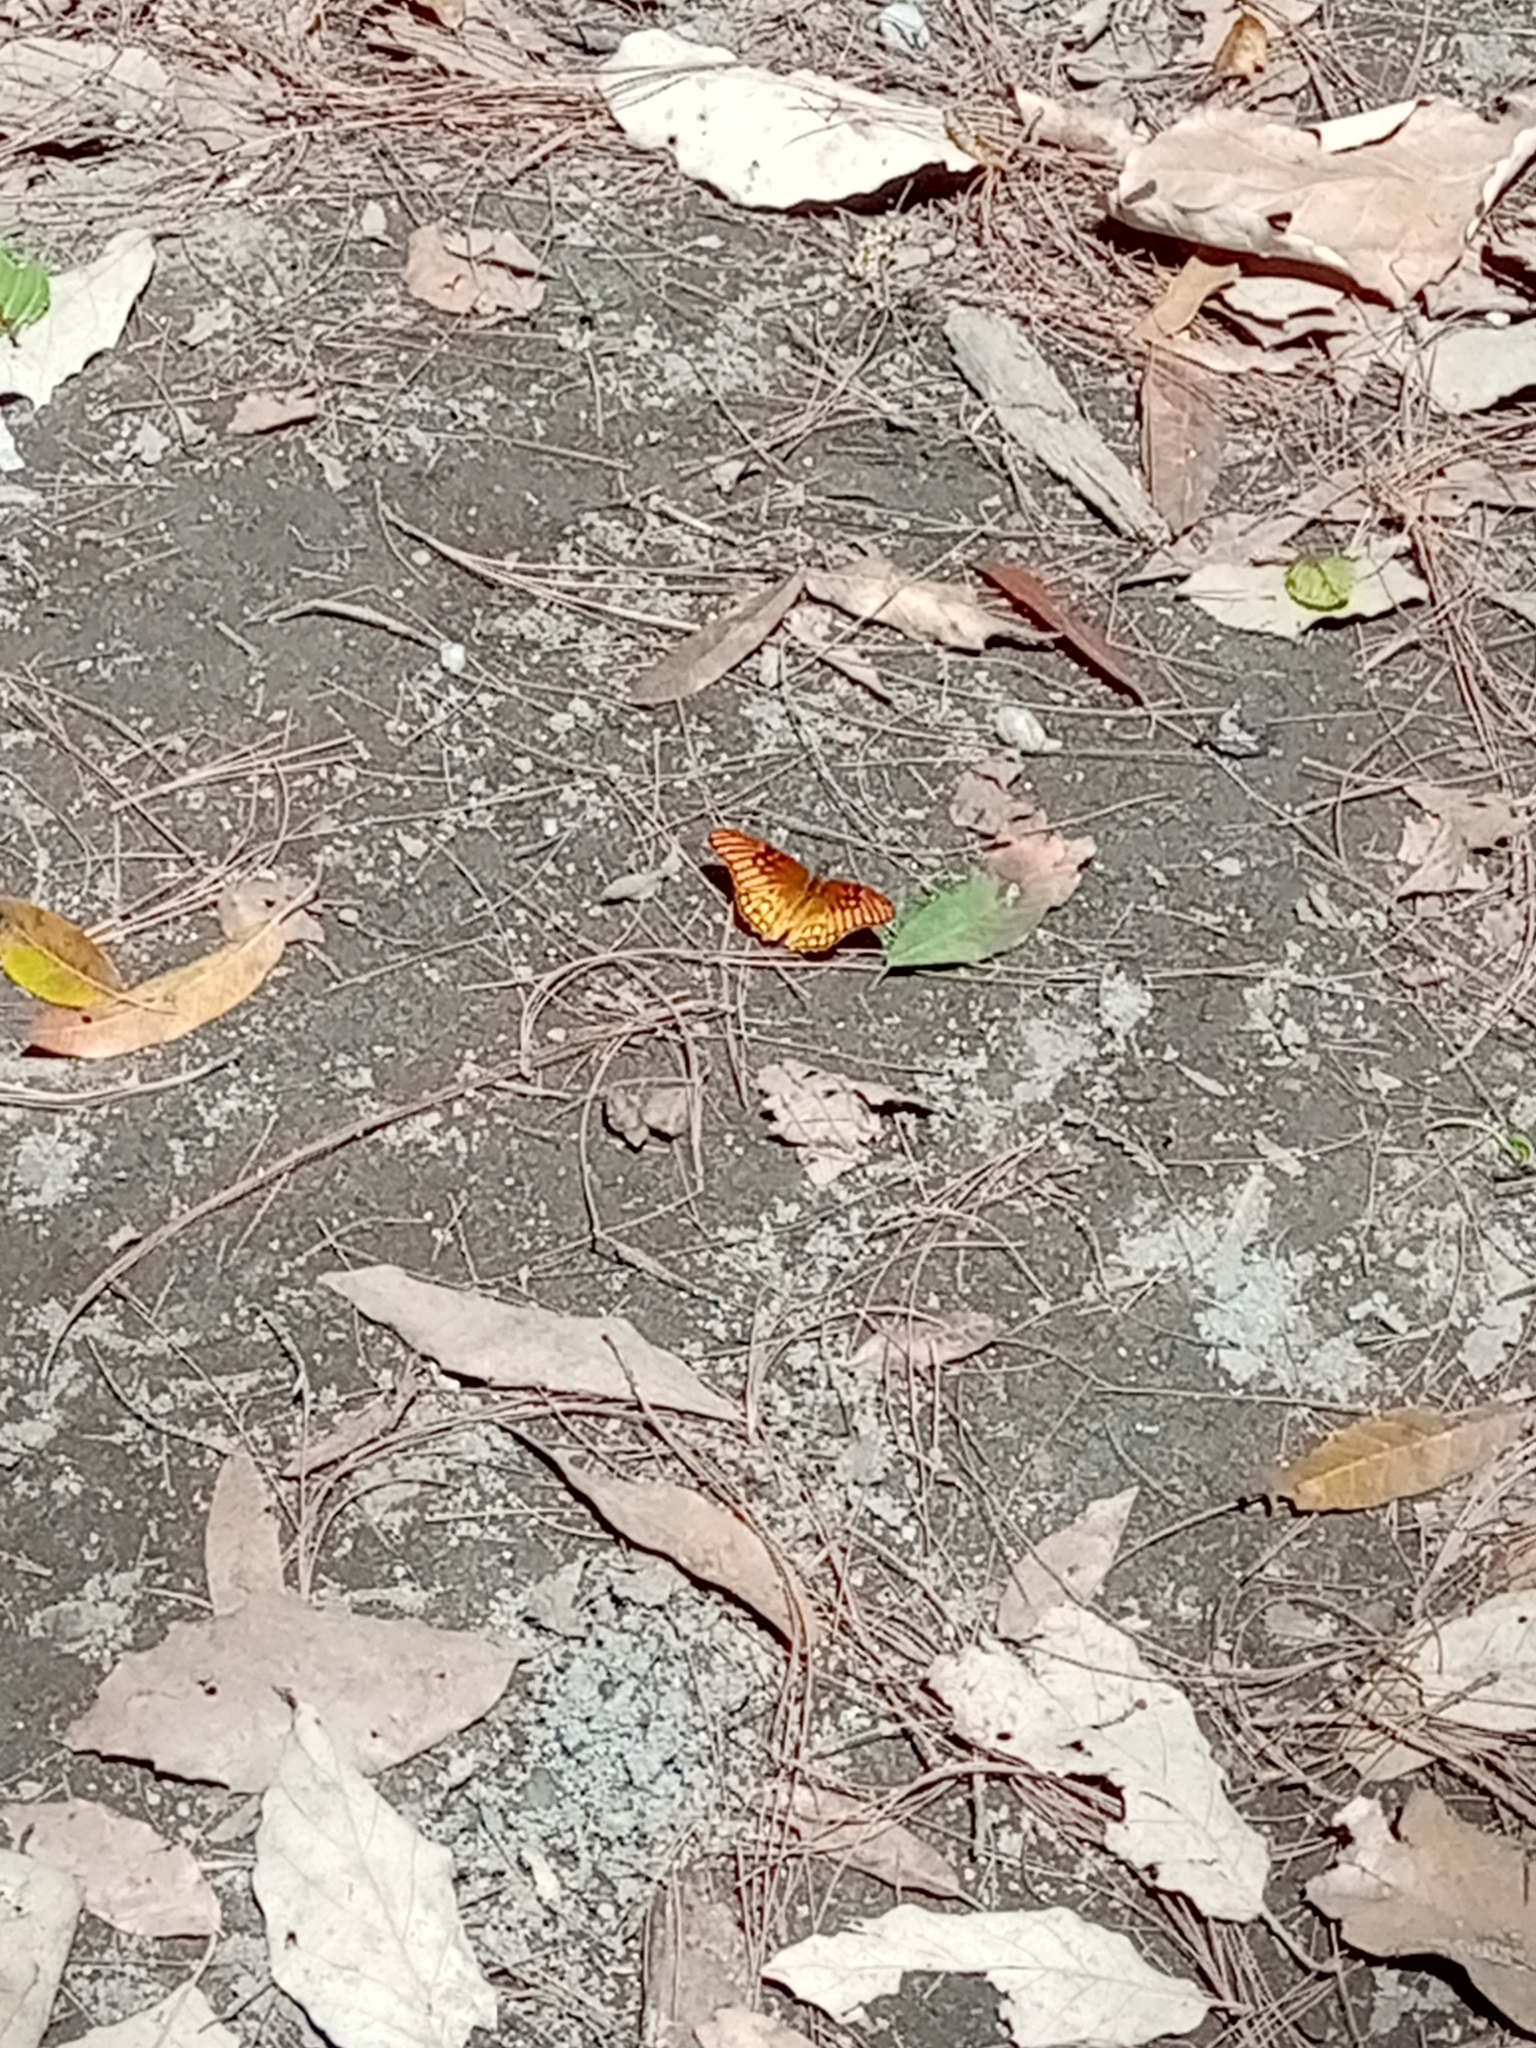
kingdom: Animalia
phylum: Arthropoda
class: Insecta
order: Lepidoptera
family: Nymphalidae
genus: Dione
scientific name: Dione moneta
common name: Mexican silverspot
